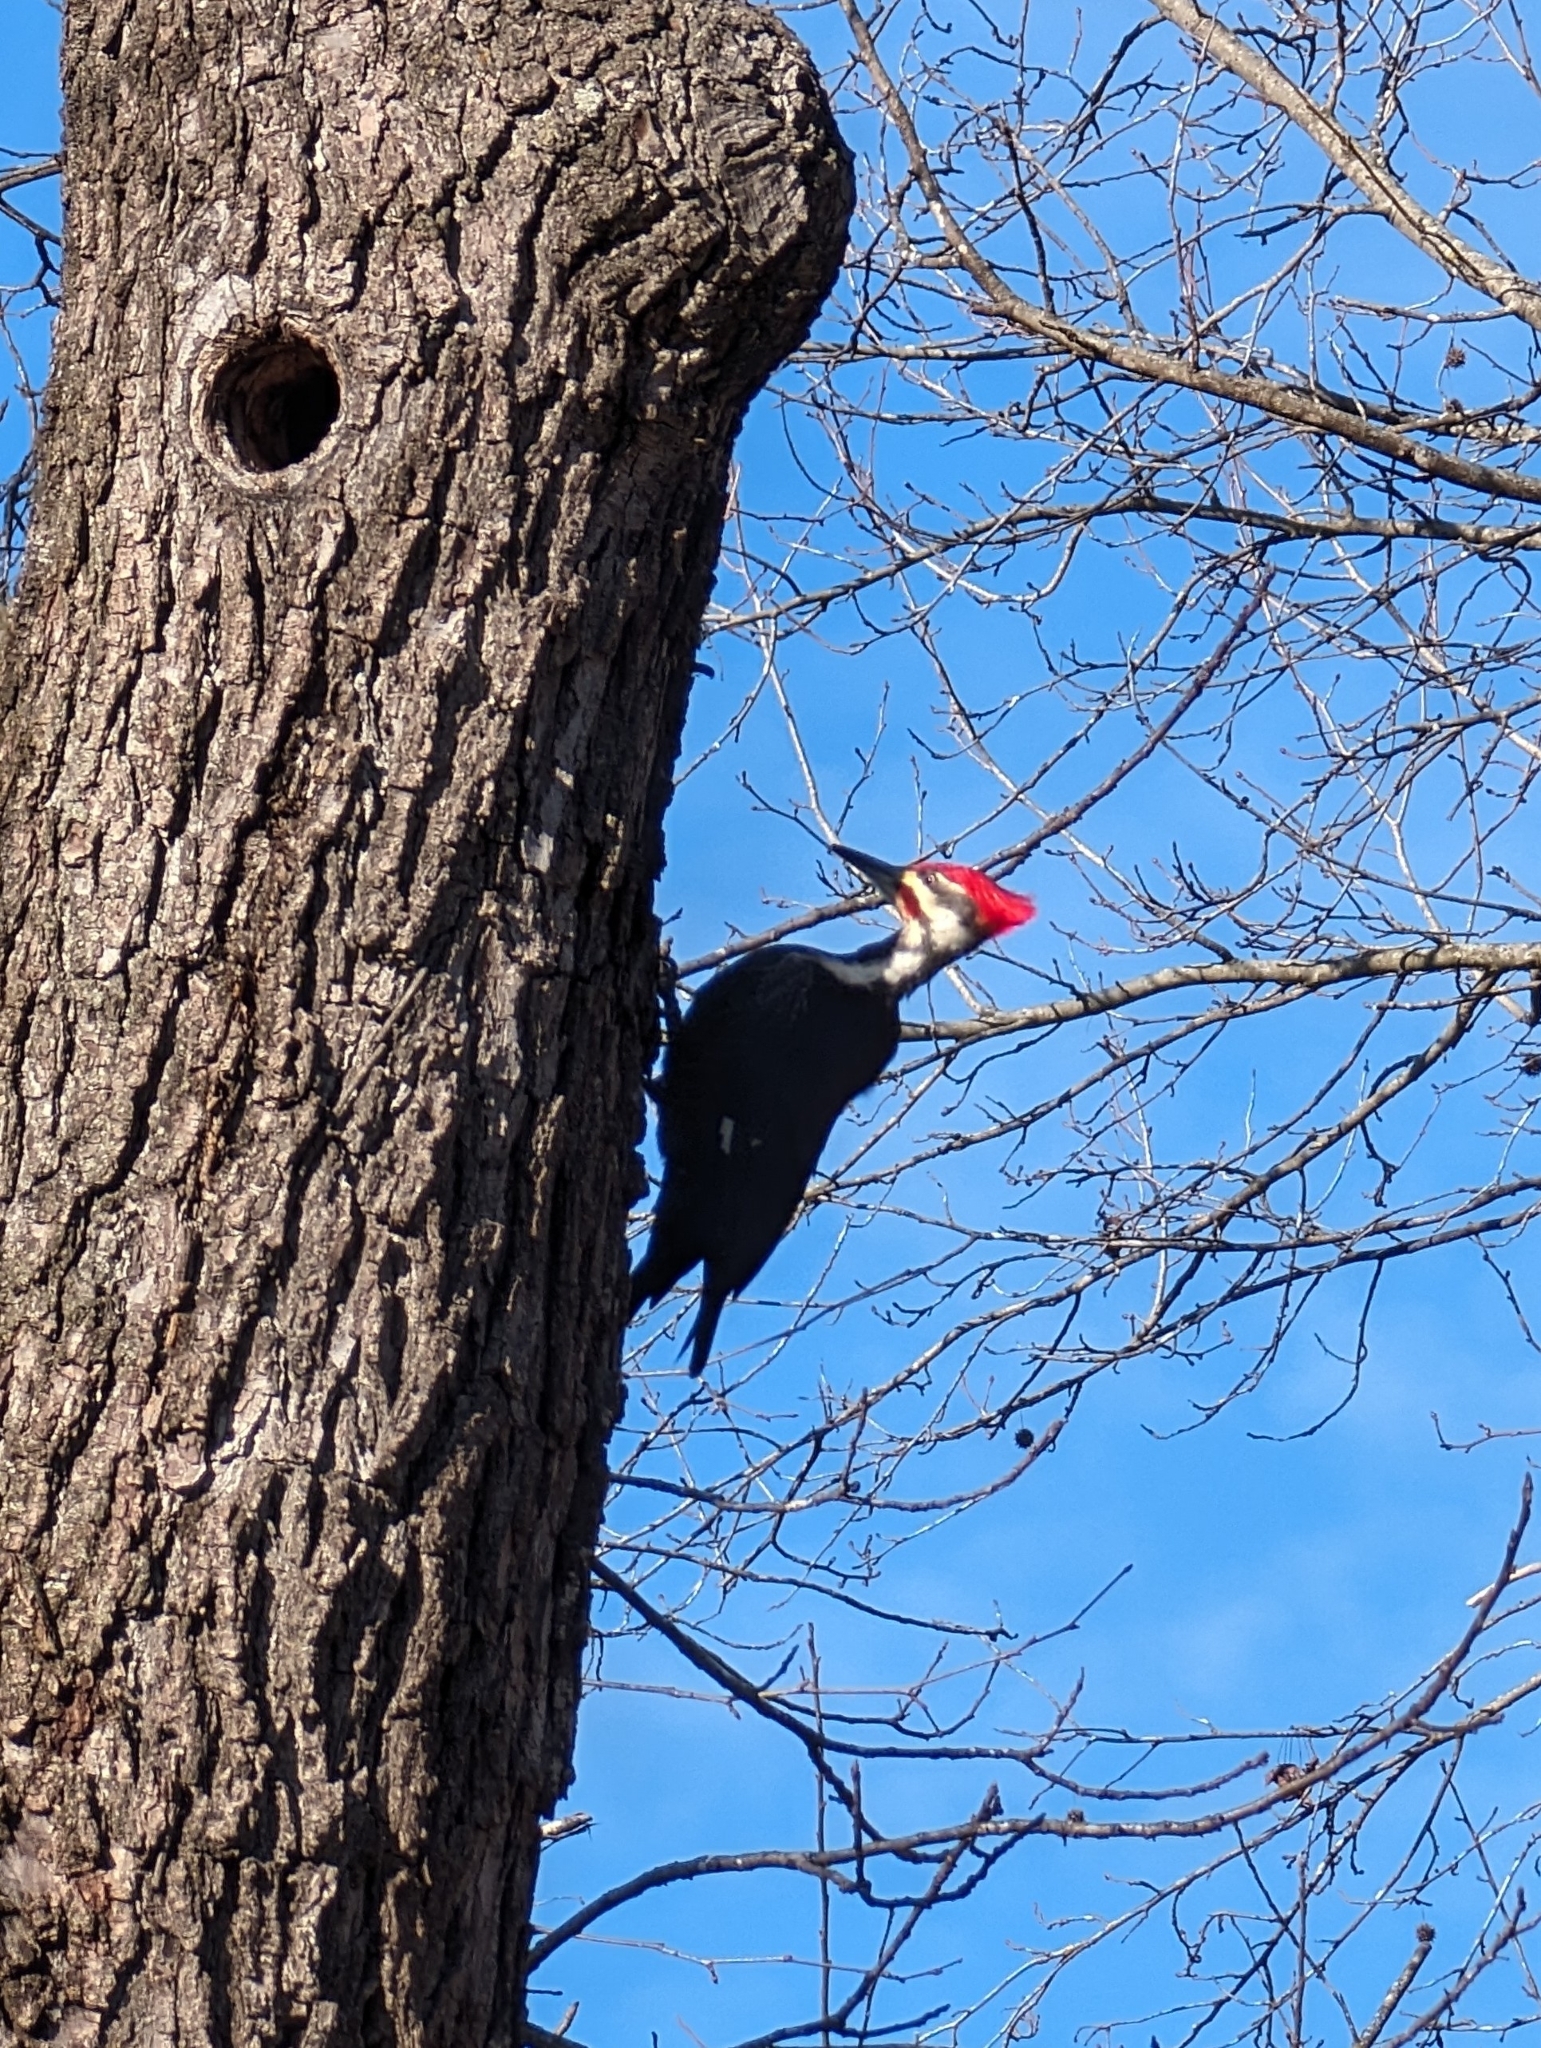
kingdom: Animalia
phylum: Chordata
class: Aves
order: Piciformes
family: Picidae
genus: Dryocopus
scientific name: Dryocopus pileatus
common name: Pileated woodpecker
